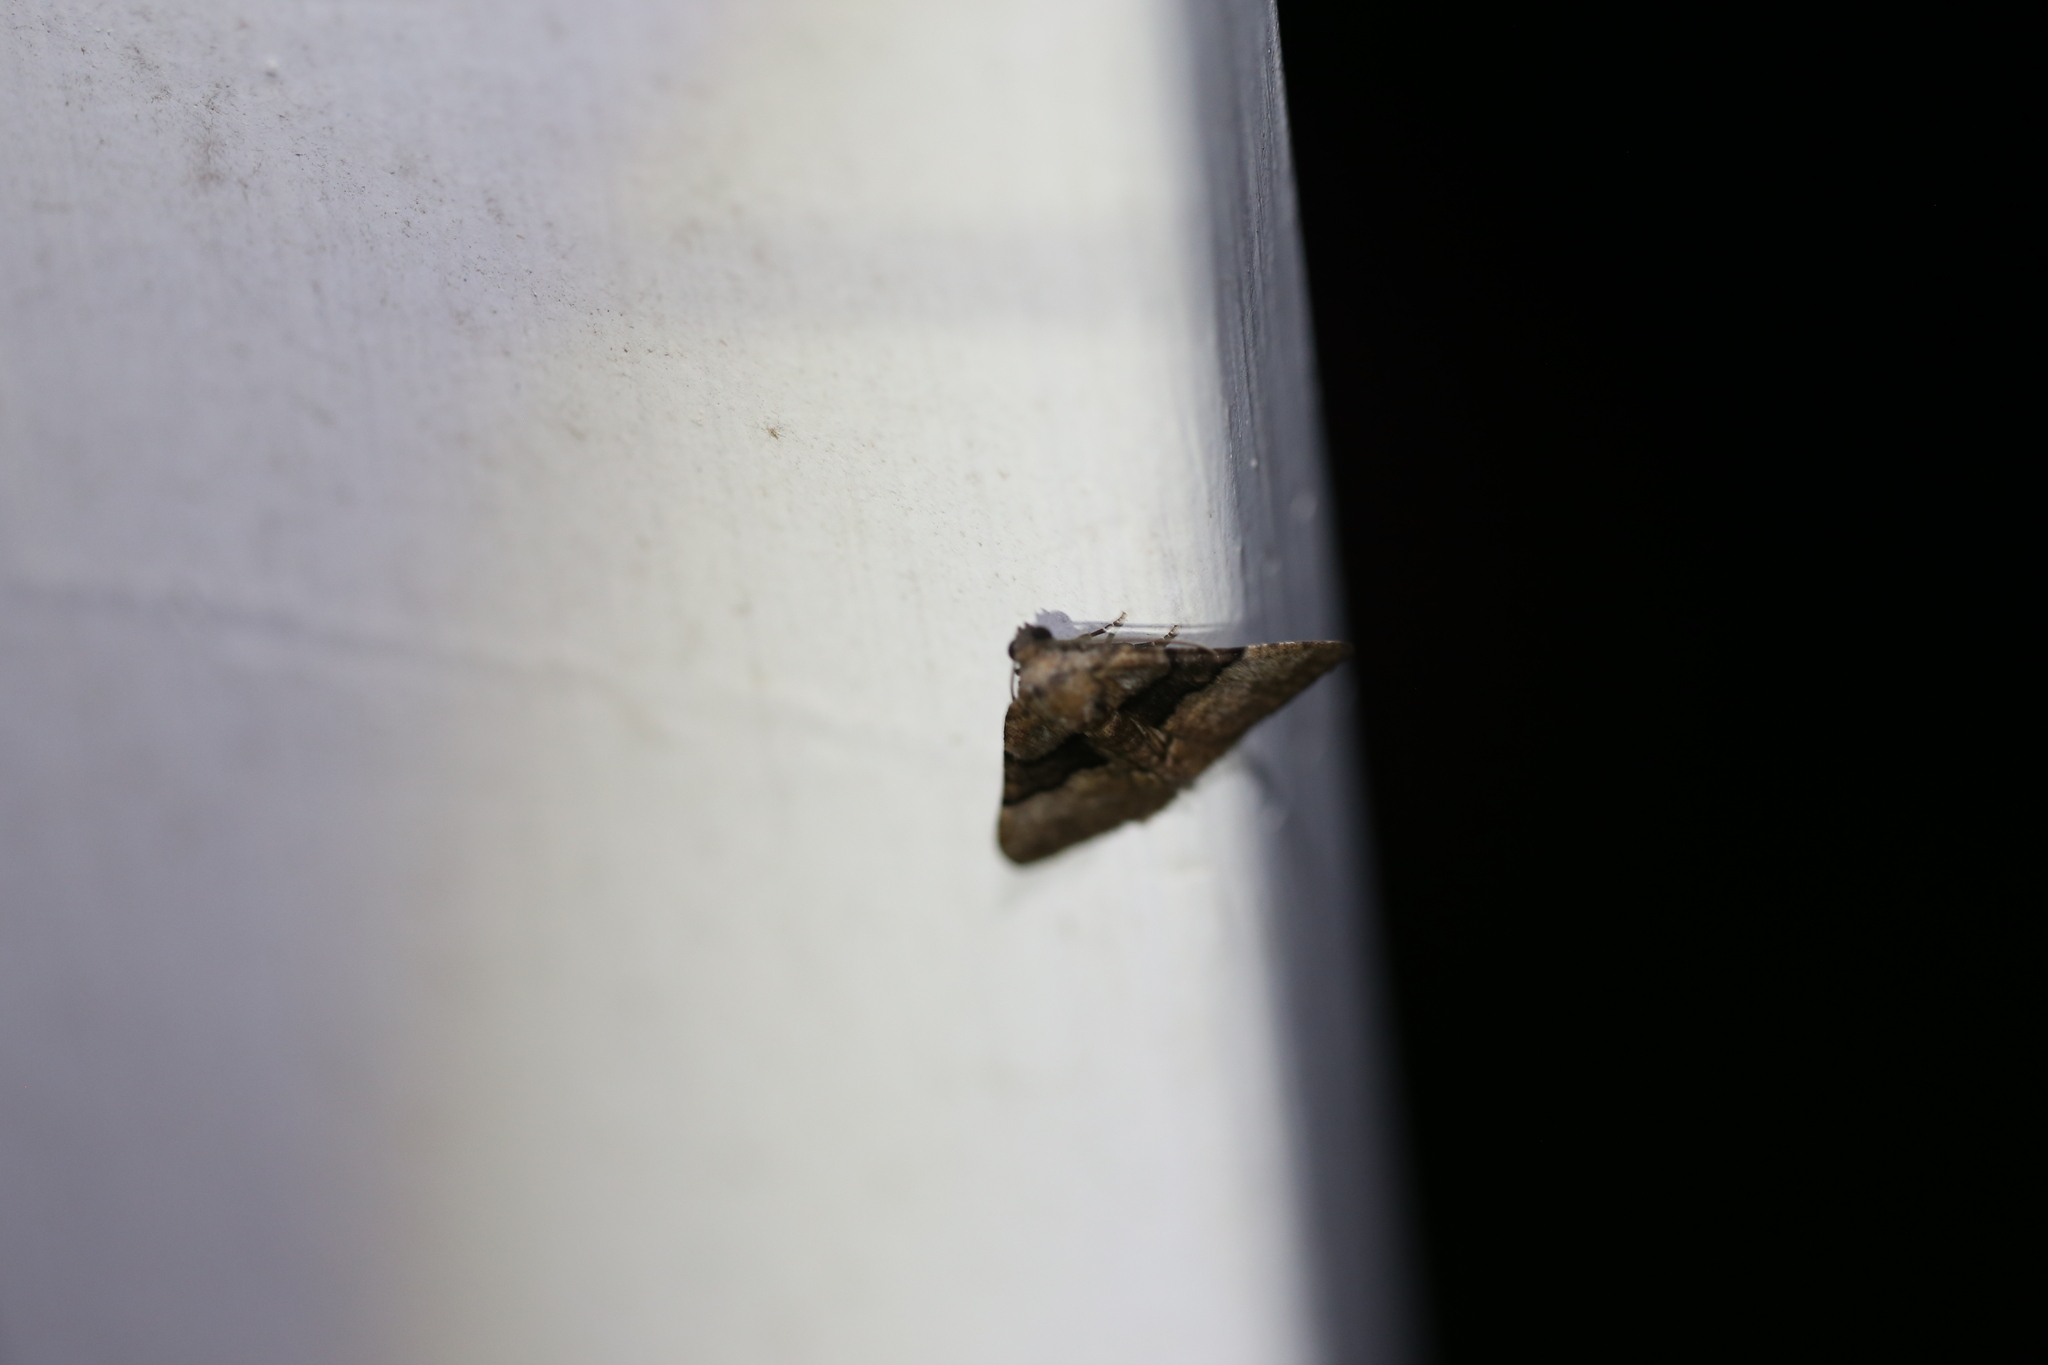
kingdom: Animalia
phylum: Arthropoda
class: Insecta
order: Lepidoptera
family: Geometridae
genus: Aporoctena
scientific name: Aporoctena scierodes
